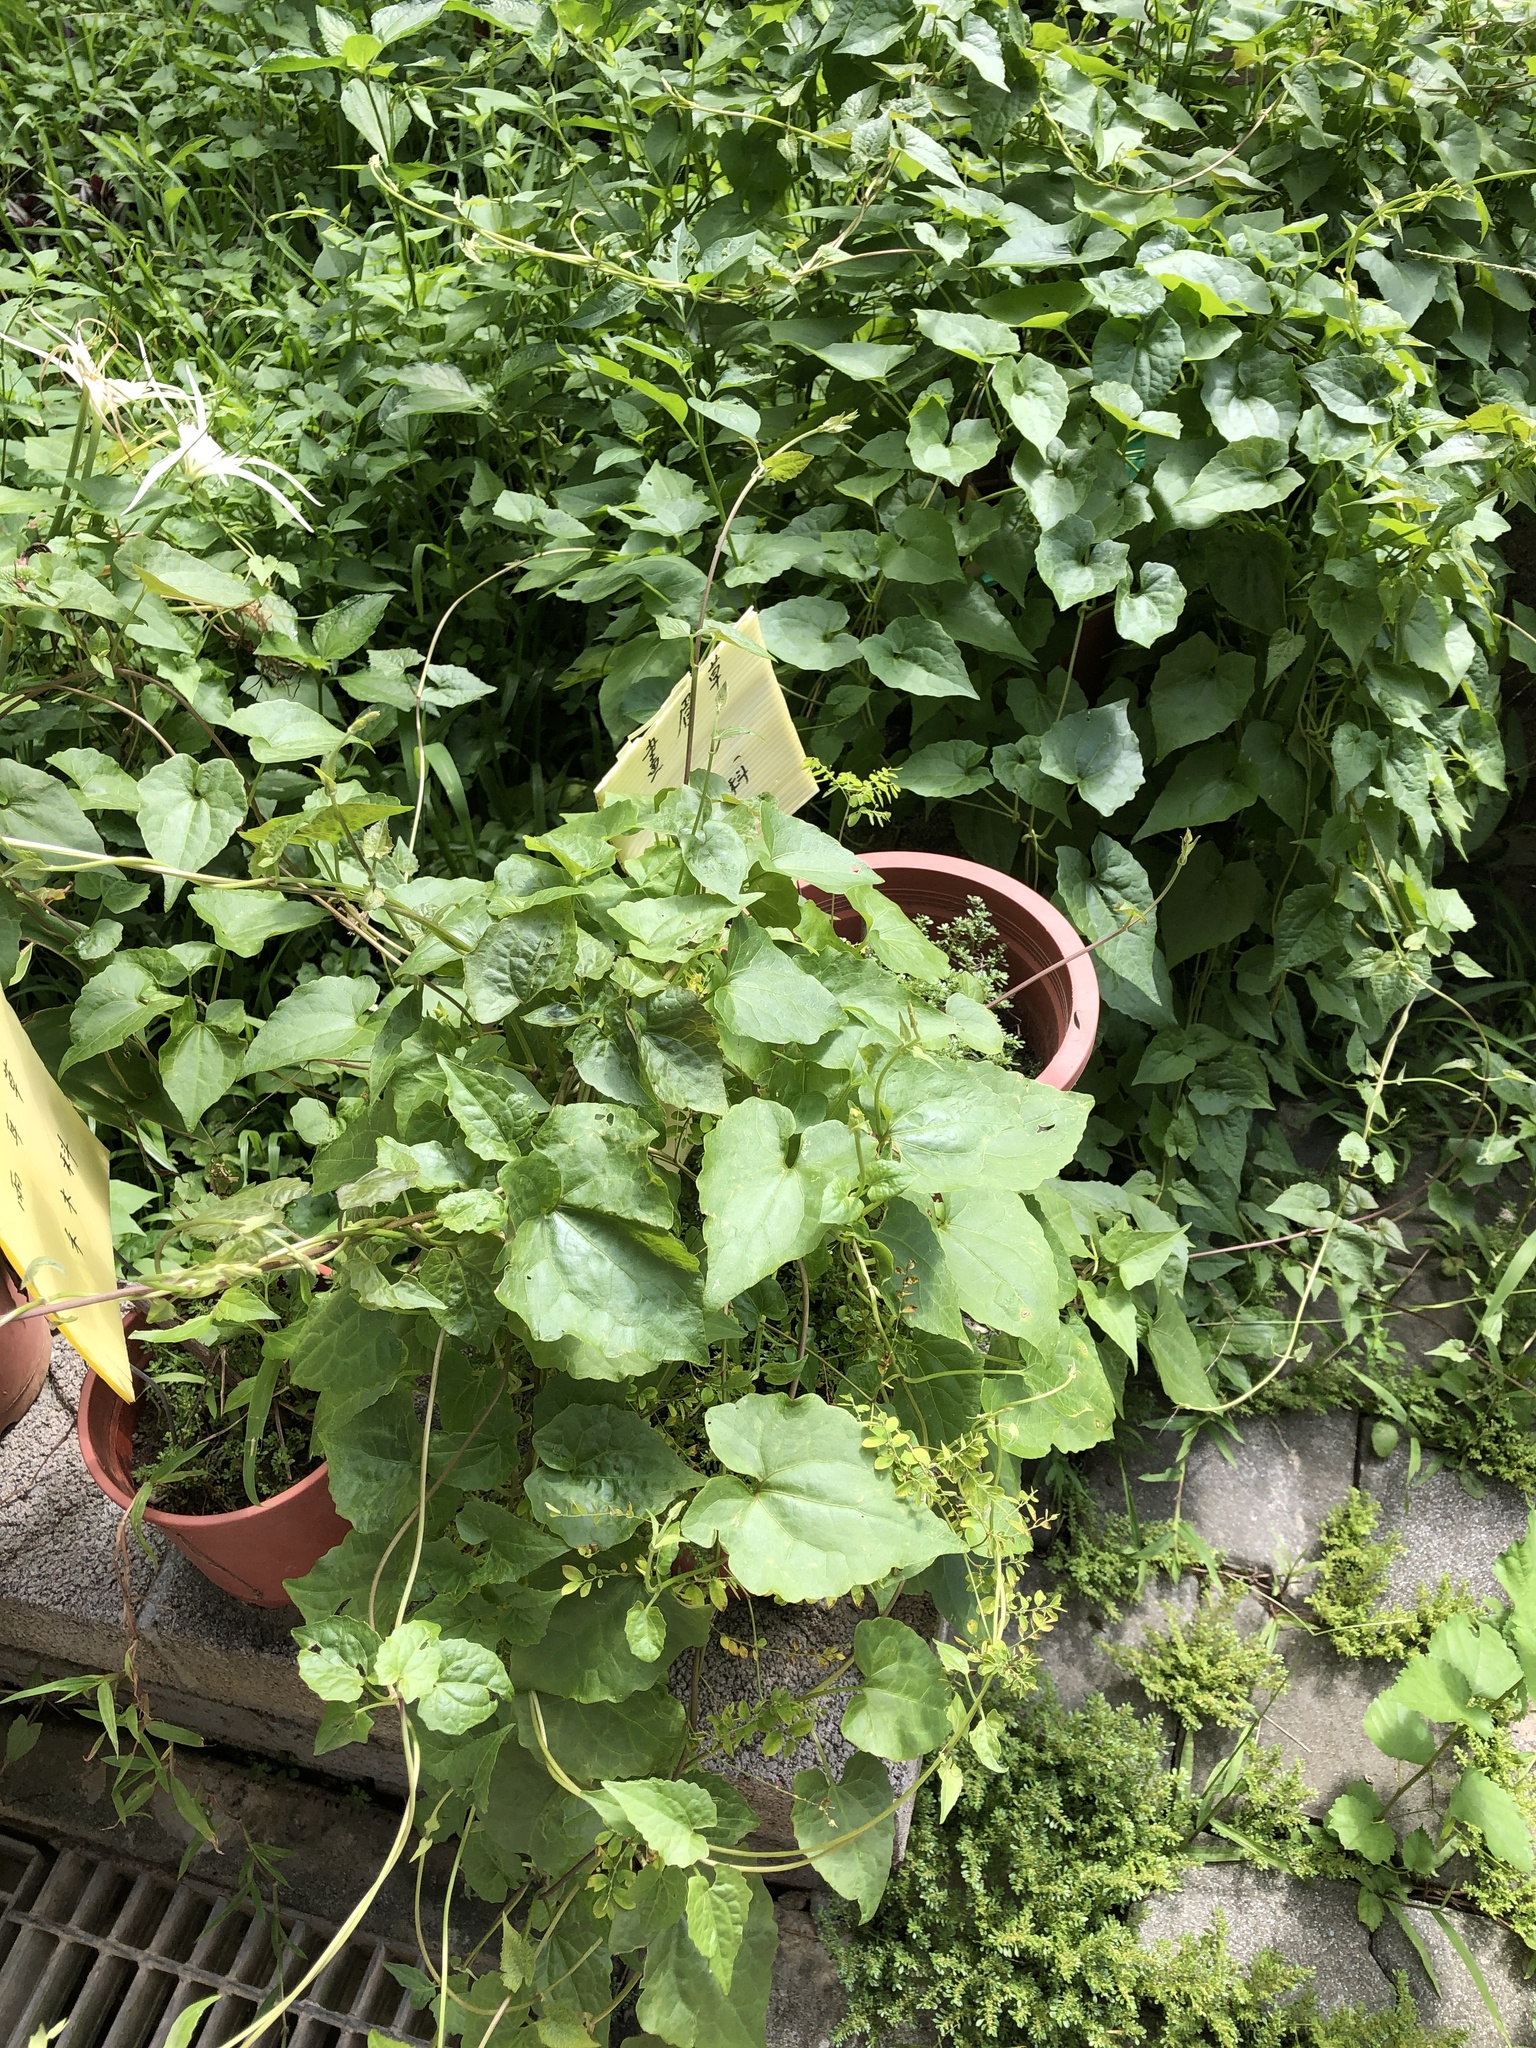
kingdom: Plantae
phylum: Tracheophyta
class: Magnoliopsida
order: Asterales
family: Asteraceae
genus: Mikania
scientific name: Mikania micrantha
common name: Mile-a-minute
